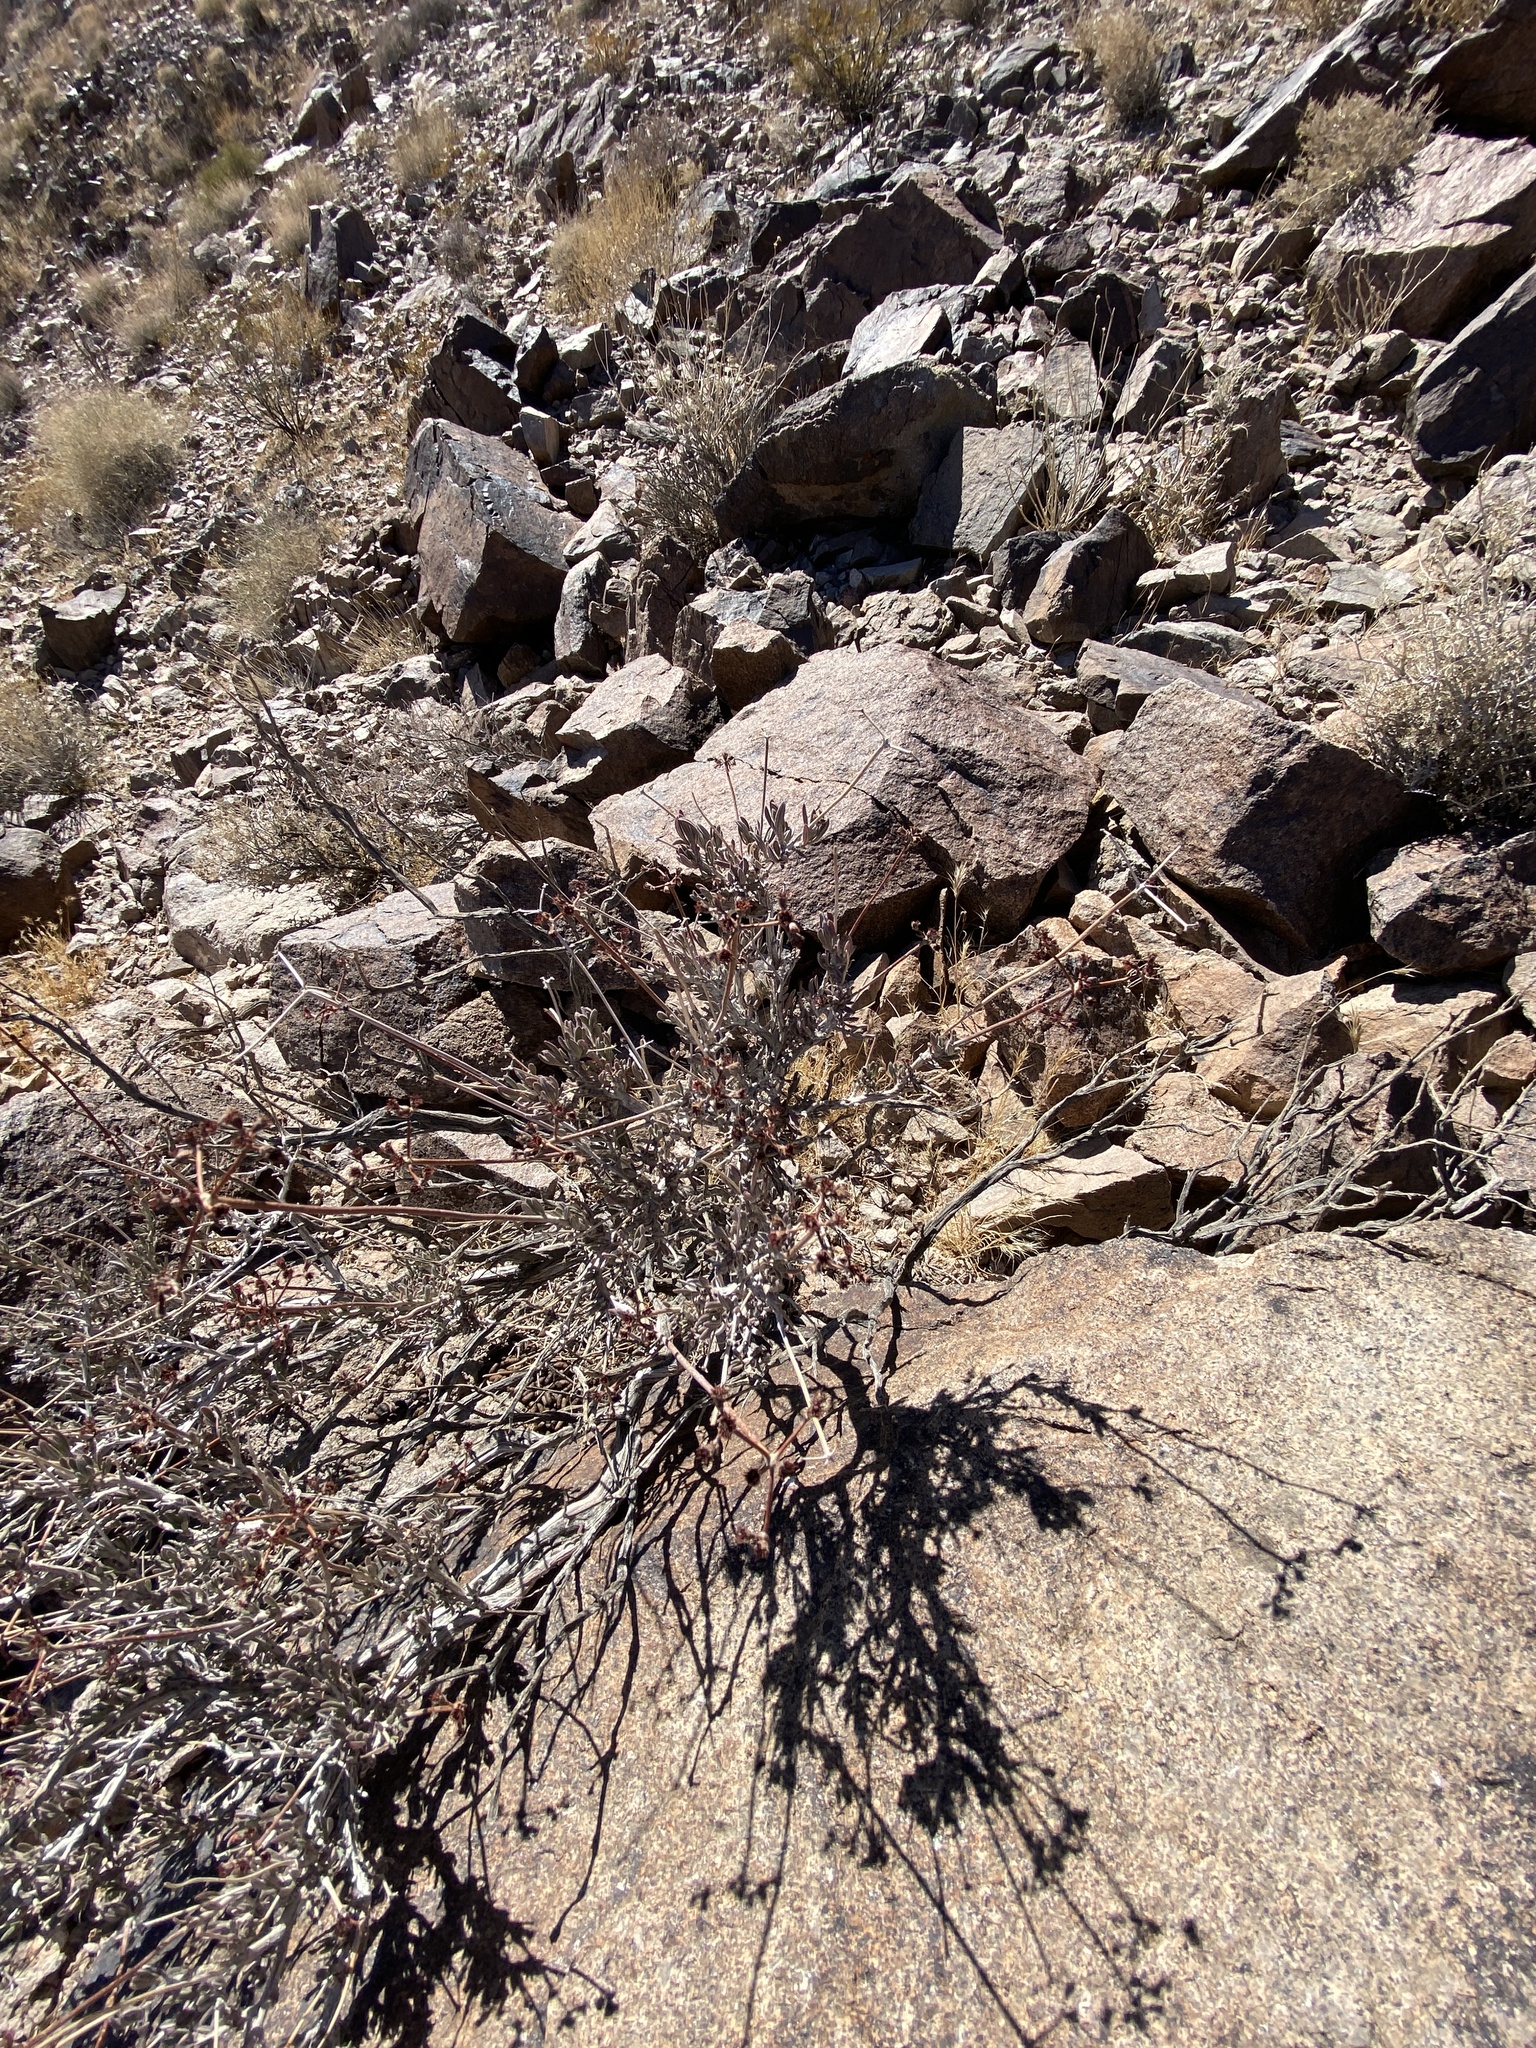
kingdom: Plantae
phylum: Tracheophyta
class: Magnoliopsida
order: Caryophyllales
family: Polygonaceae
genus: Eriogonum
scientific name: Eriogonum fasciculatum
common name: California wild buckwheat
